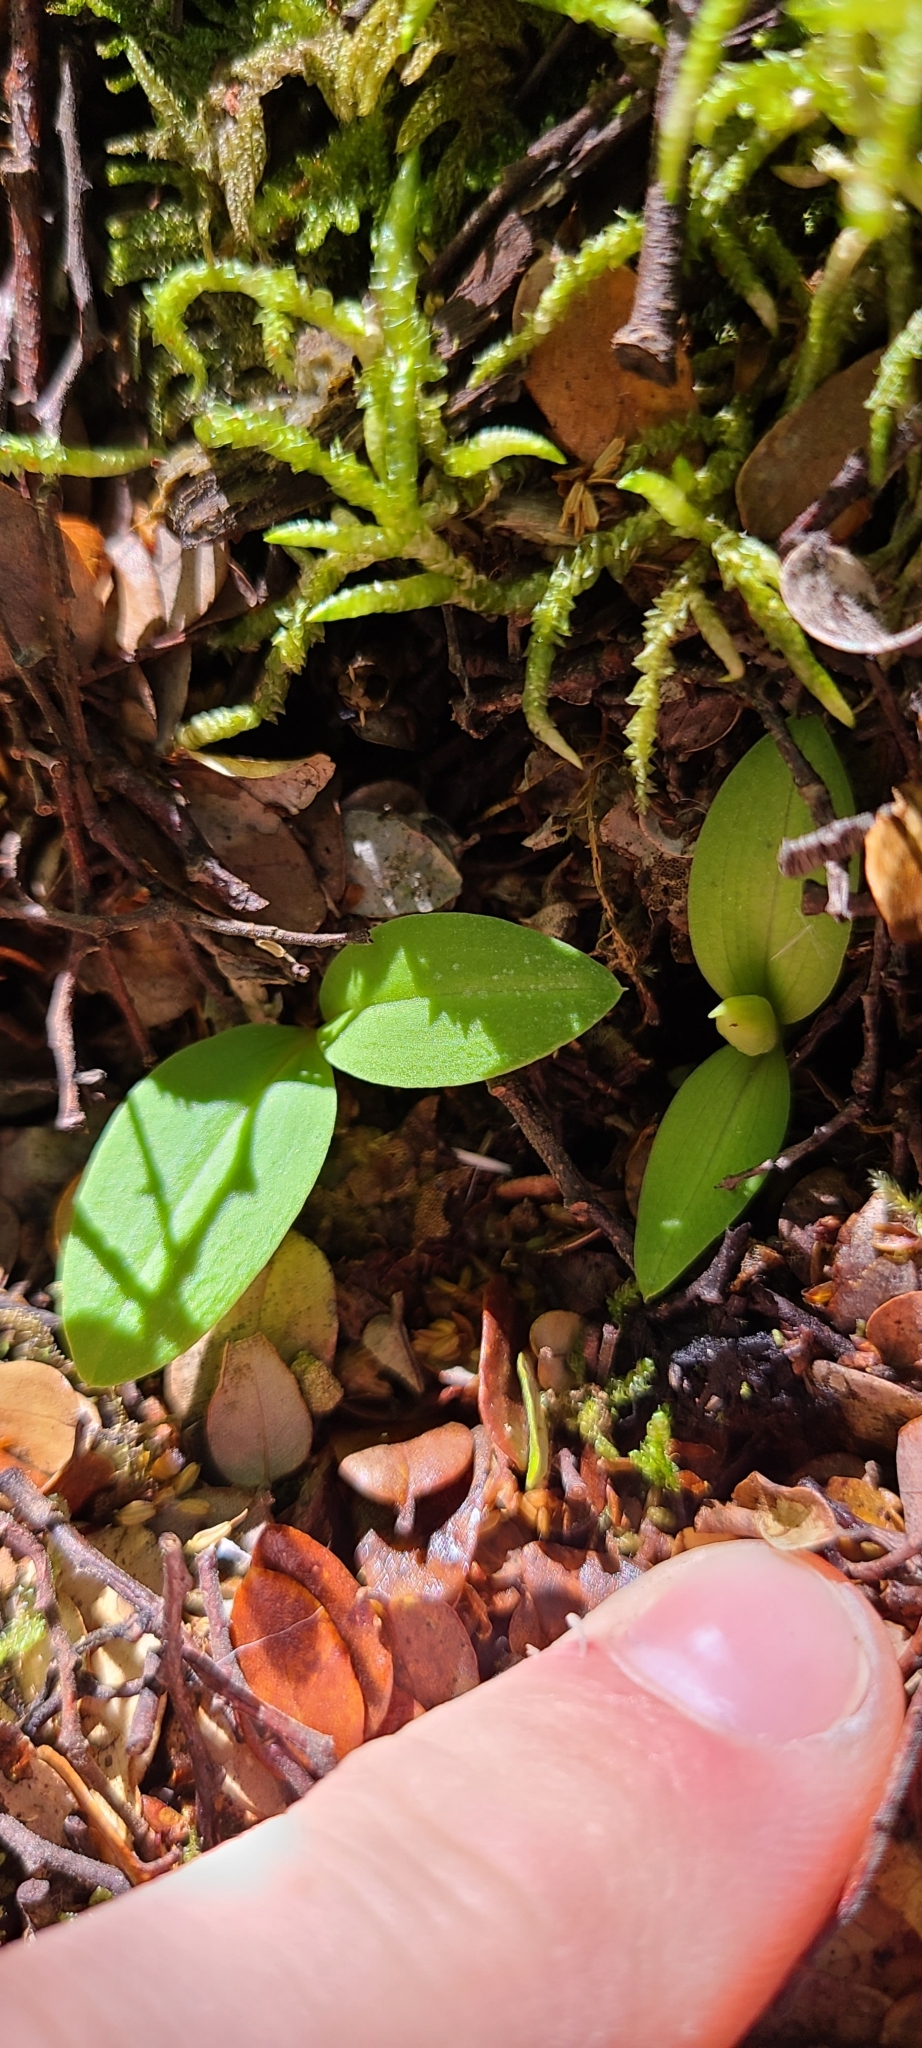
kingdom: Plantae
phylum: Tracheophyta
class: Liliopsida
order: Asparagales
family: Orchidaceae
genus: Chiloglottis
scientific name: Chiloglottis cornuta
